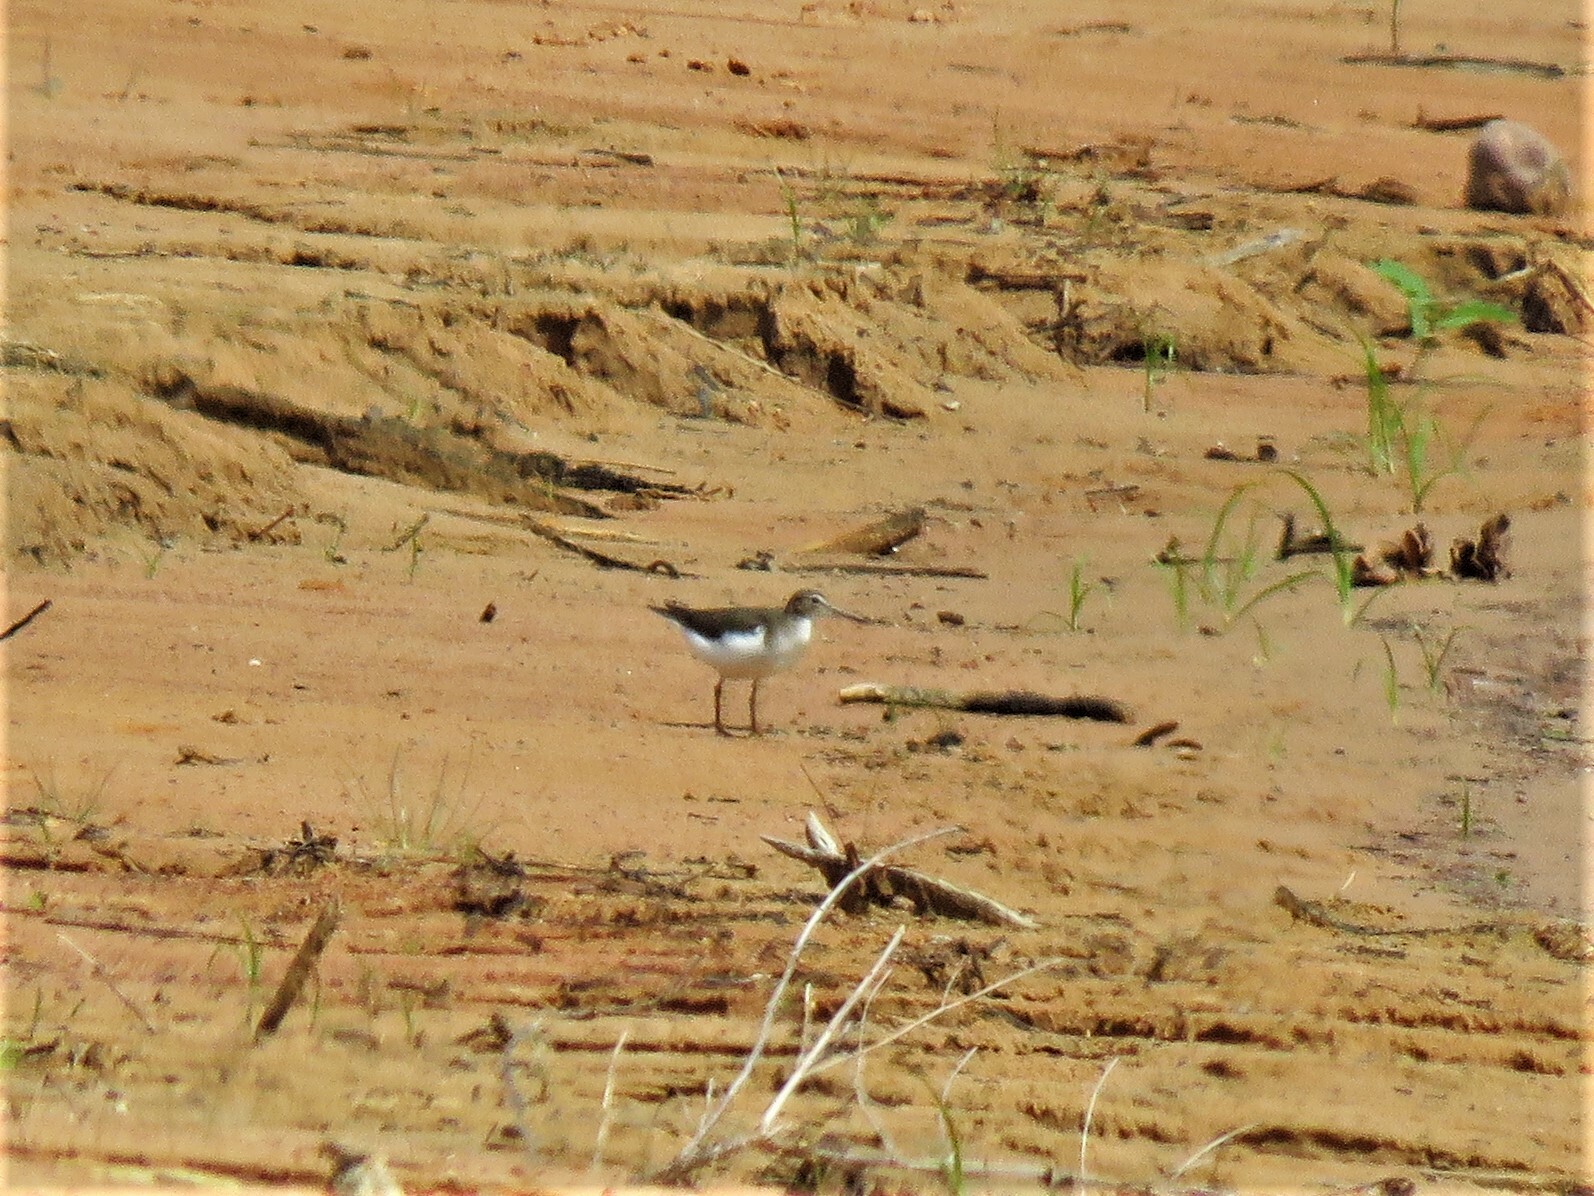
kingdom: Animalia
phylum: Chordata
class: Aves
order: Charadriiformes
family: Scolopacidae
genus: Actitis
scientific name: Actitis macularius
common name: Spotted sandpiper
